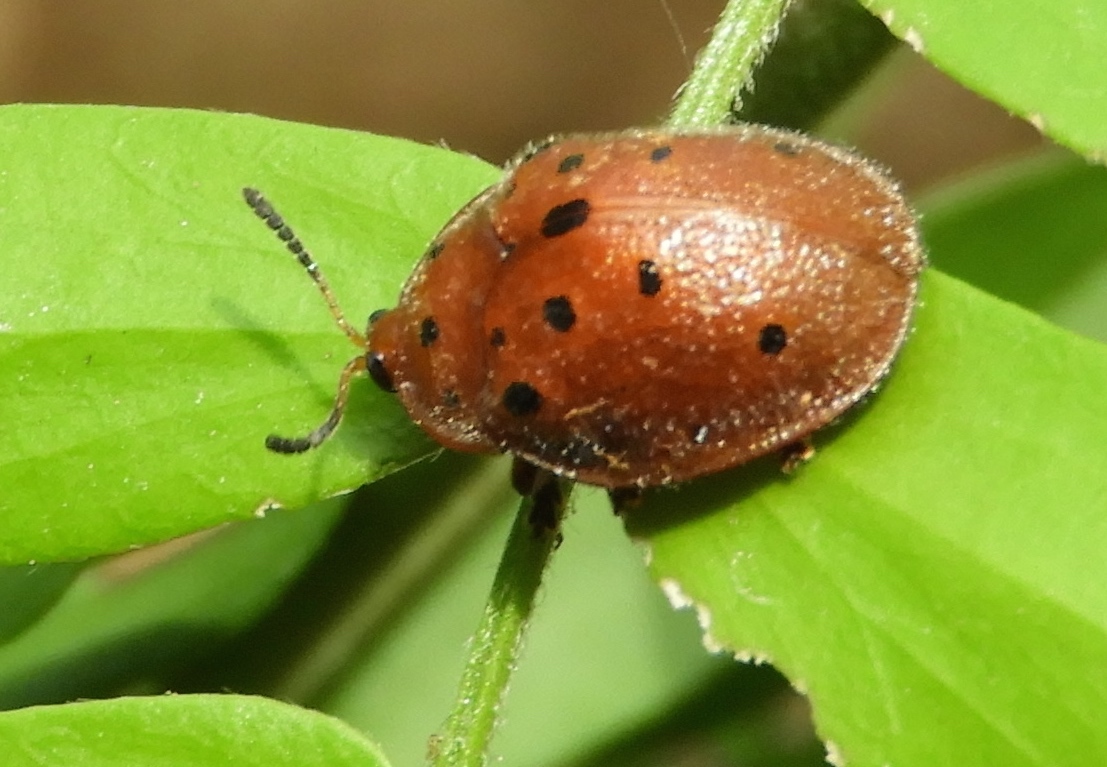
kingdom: Animalia
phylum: Arthropoda
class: Insecta
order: Coleoptera
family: Chrysomelidae
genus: Chelymorpha
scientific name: Chelymorpha cassidea
